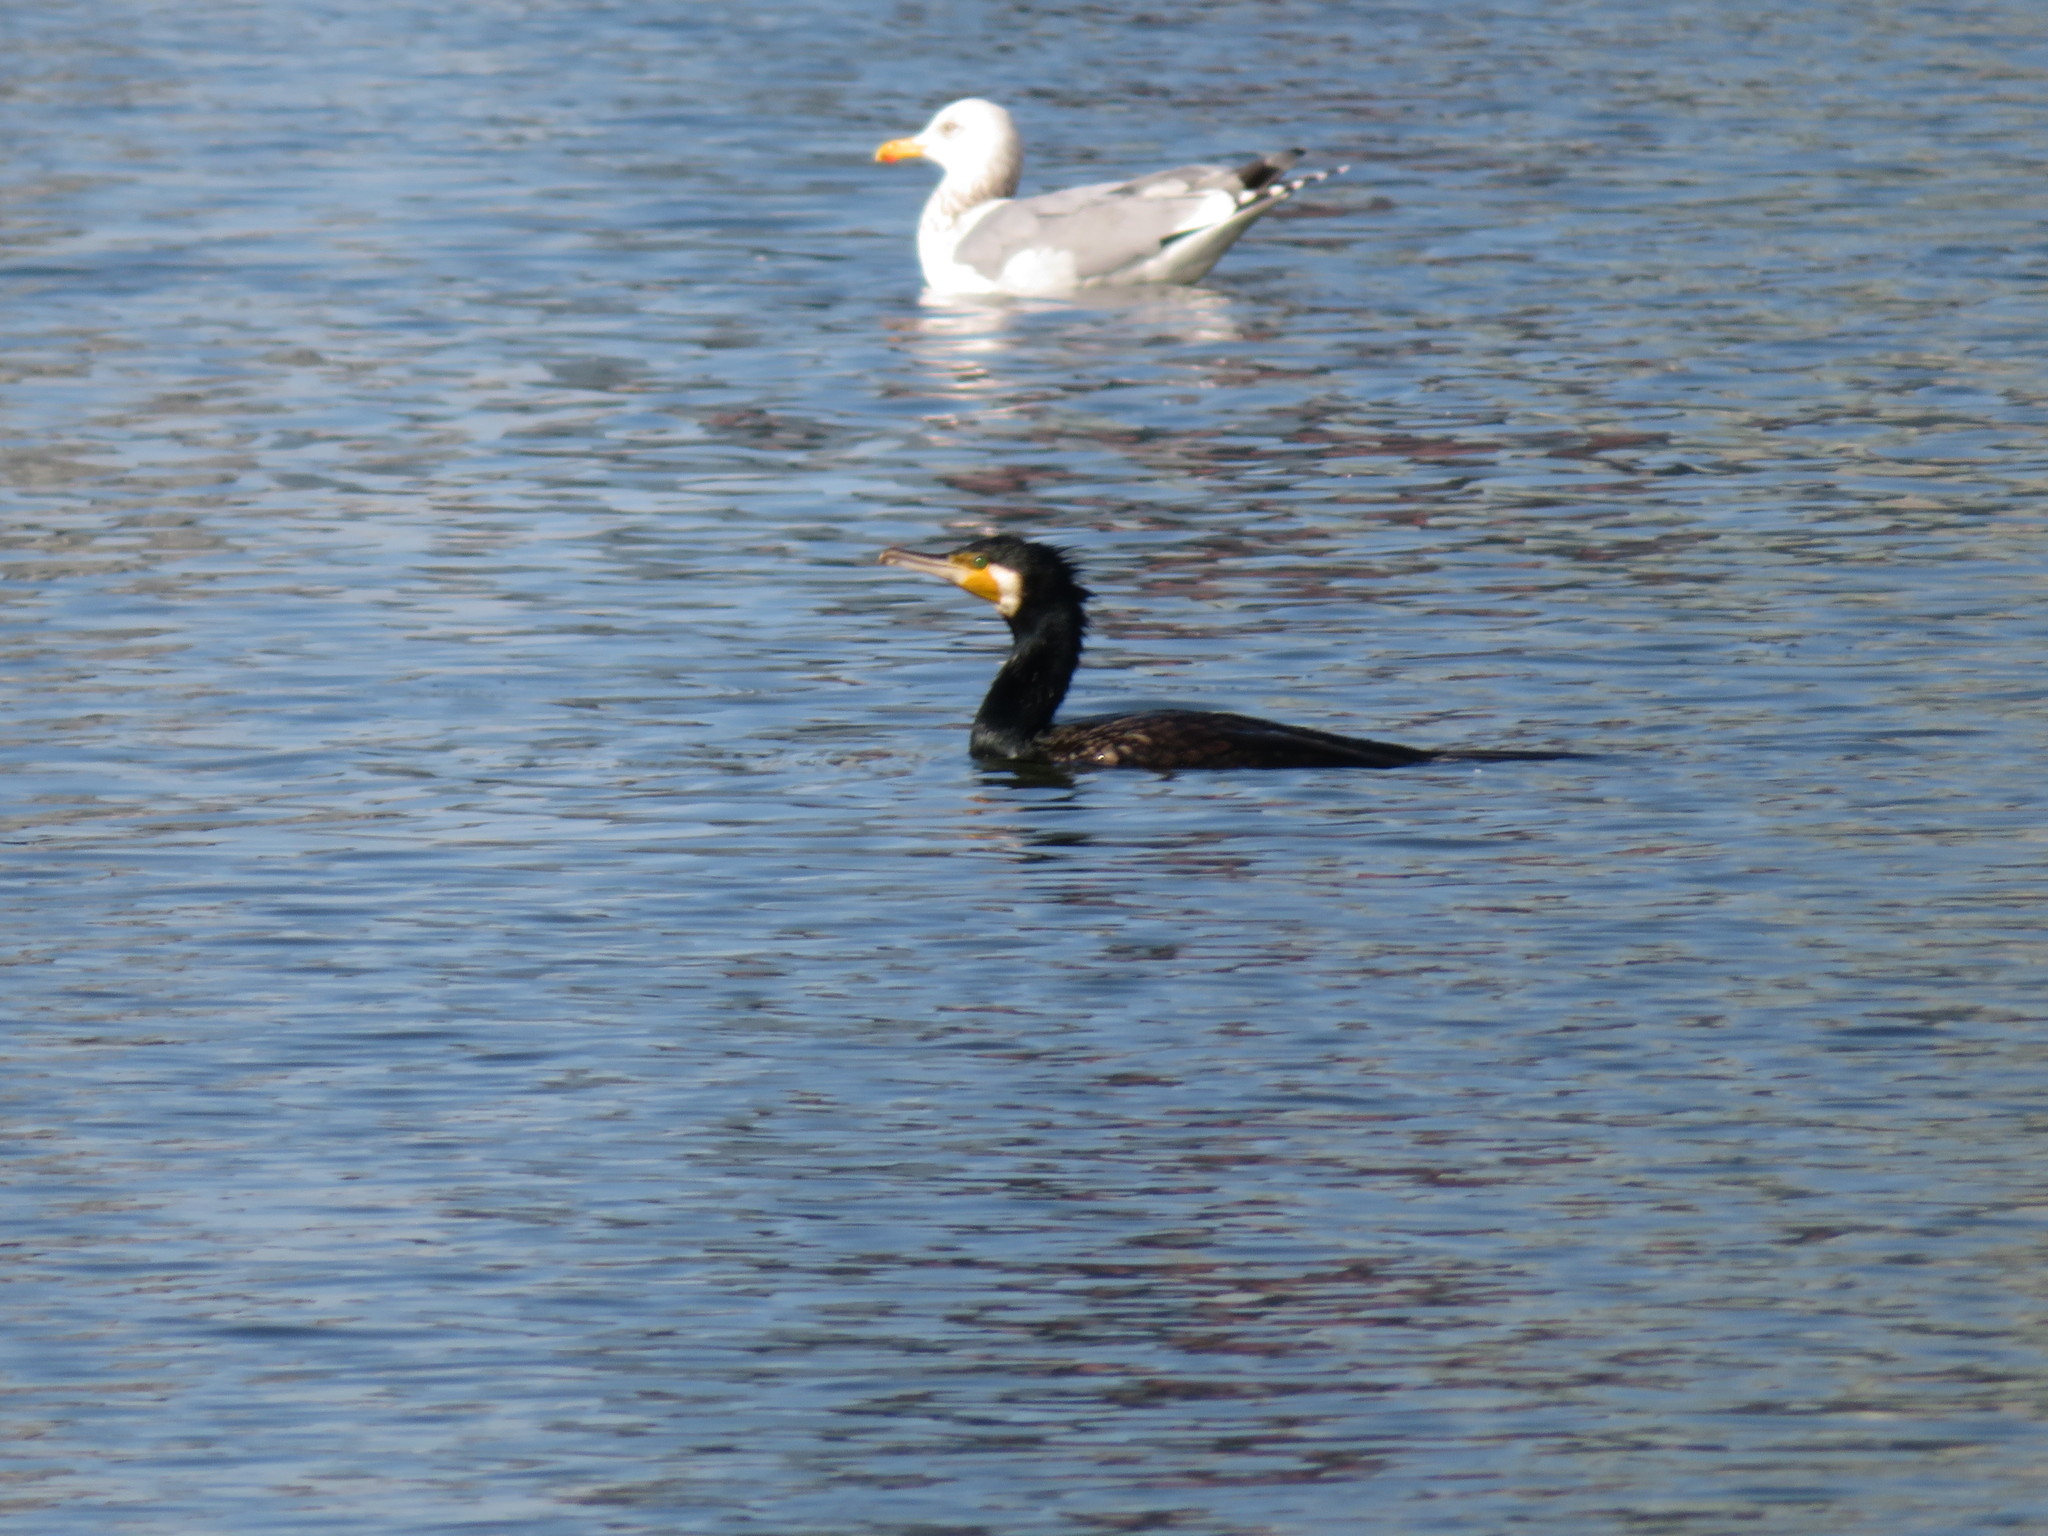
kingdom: Animalia
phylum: Chordata
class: Aves
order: Suliformes
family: Phalacrocoracidae
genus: Phalacrocorax
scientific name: Phalacrocorax carbo
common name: Great cormorant
